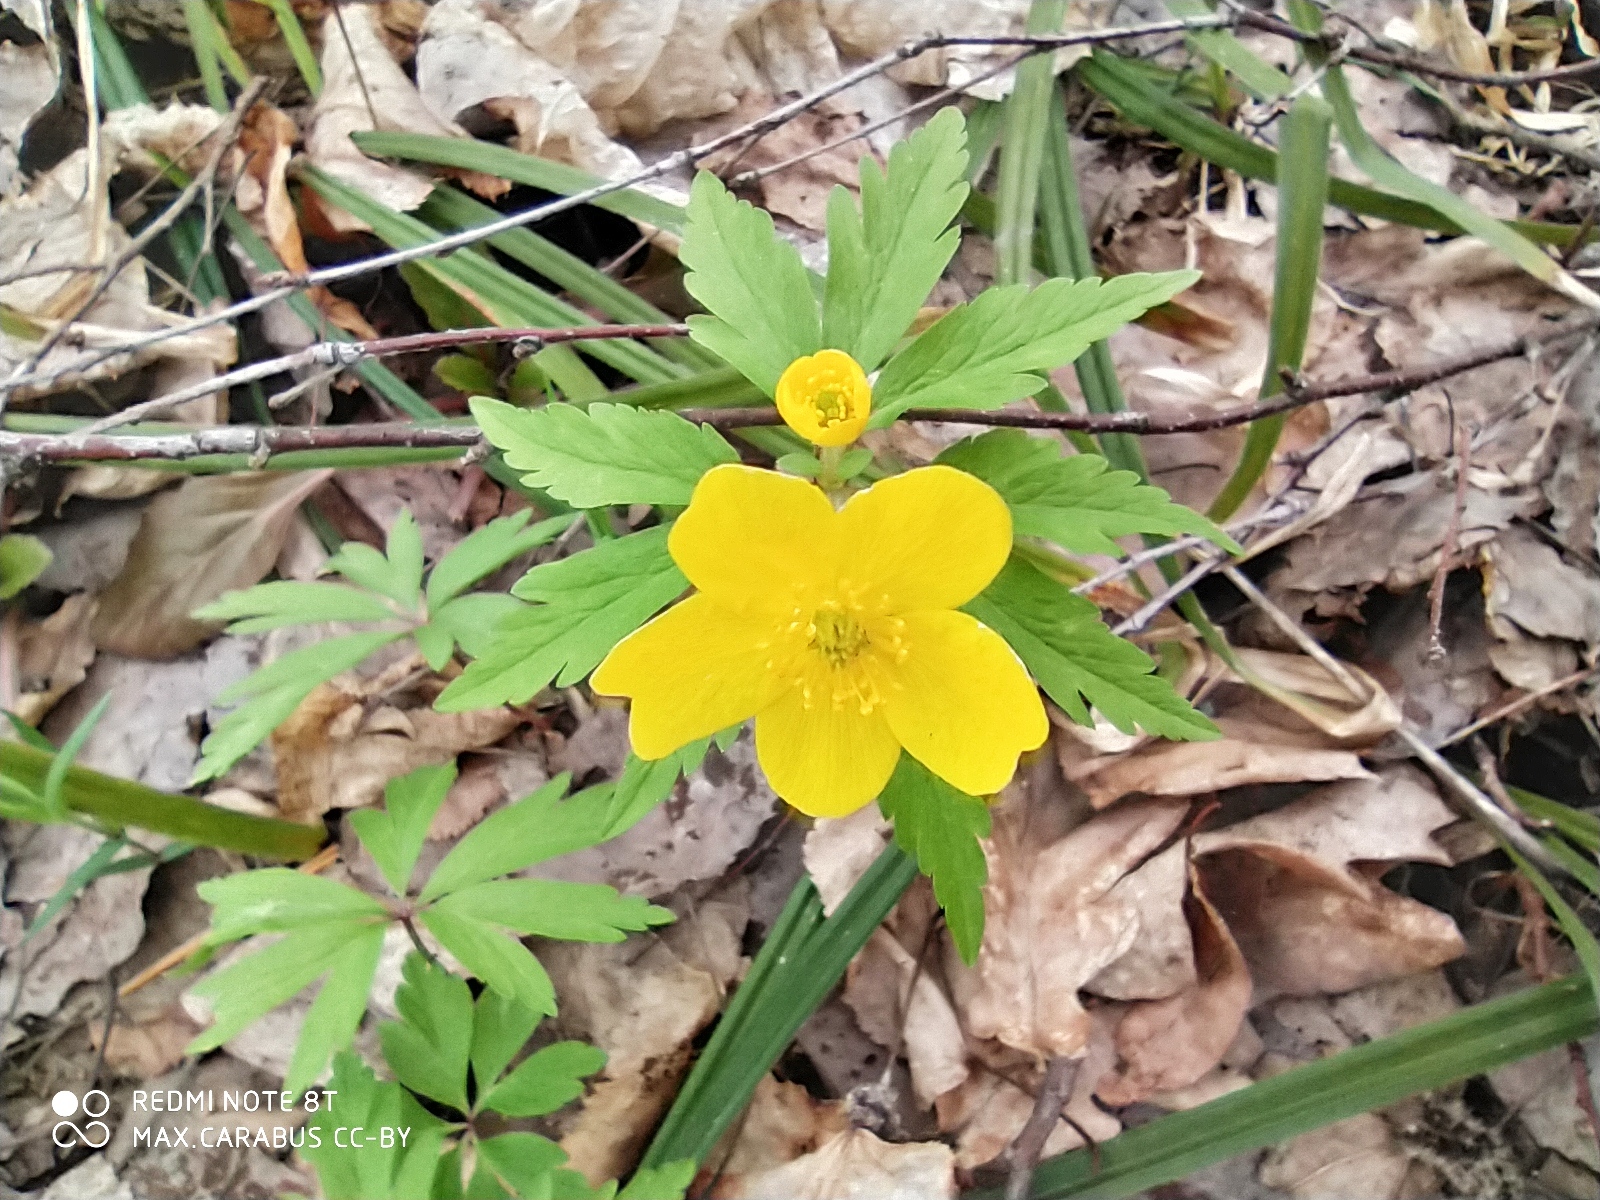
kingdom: Plantae
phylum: Tracheophyta
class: Magnoliopsida
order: Ranunculales
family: Ranunculaceae
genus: Anemone
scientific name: Anemone ranunculoides
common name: Yellow anemone
